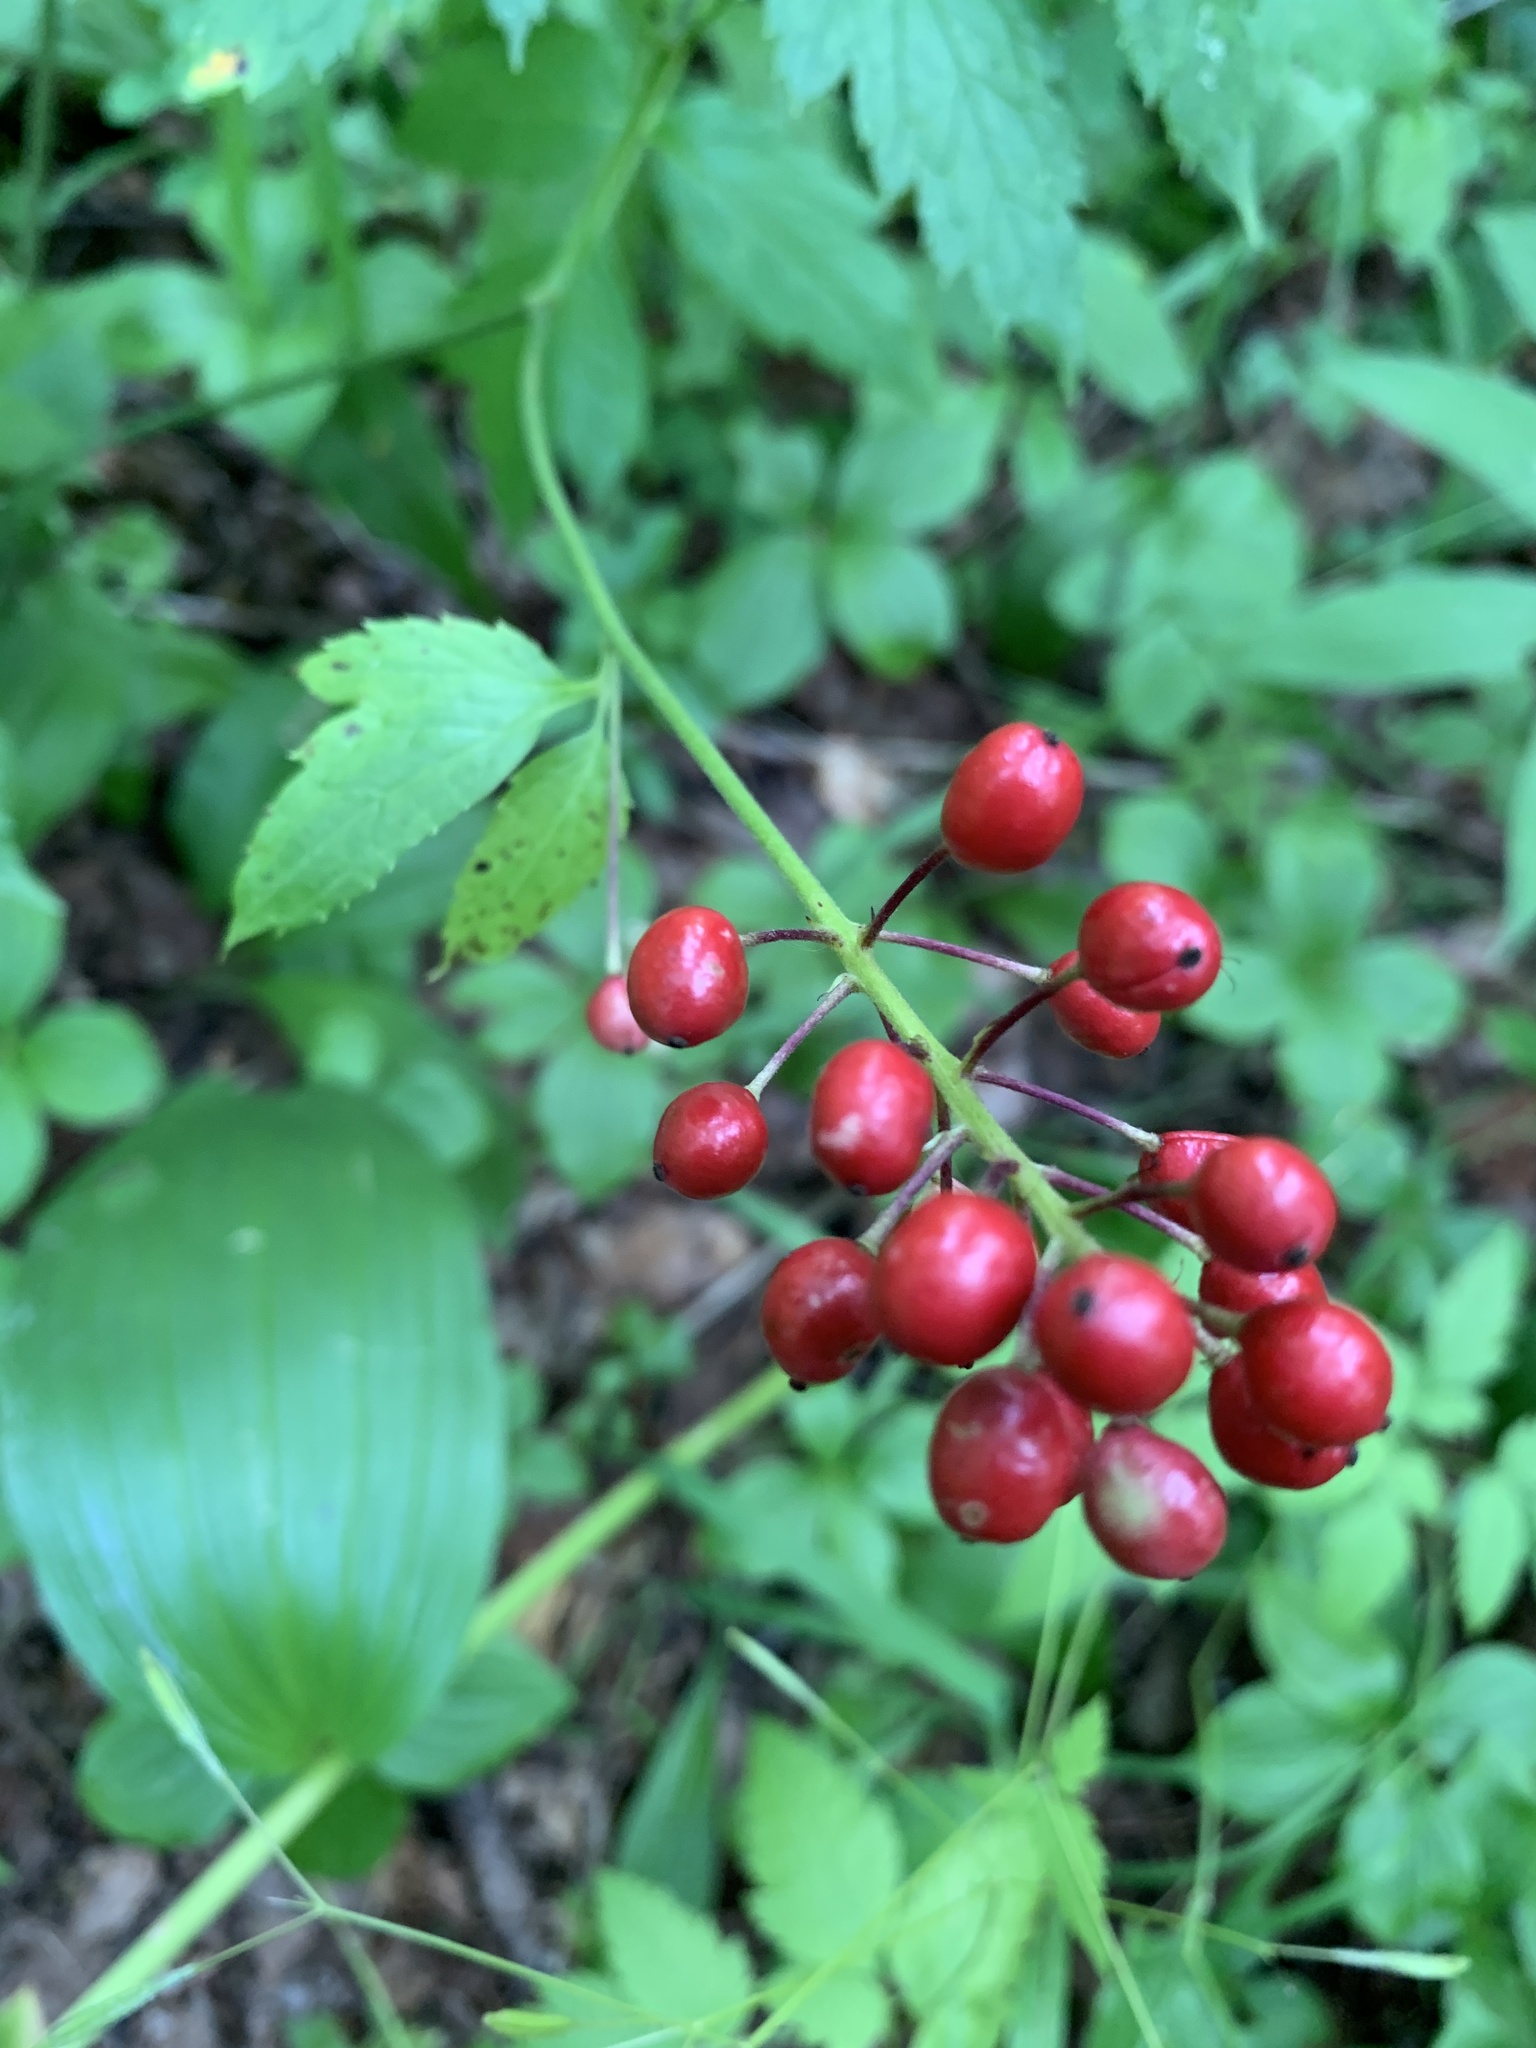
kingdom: Plantae
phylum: Tracheophyta
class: Magnoliopsida
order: Ranunculales
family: Ranunculaceae
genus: Actaea
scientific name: Actaea rubra
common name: Red baneberry
